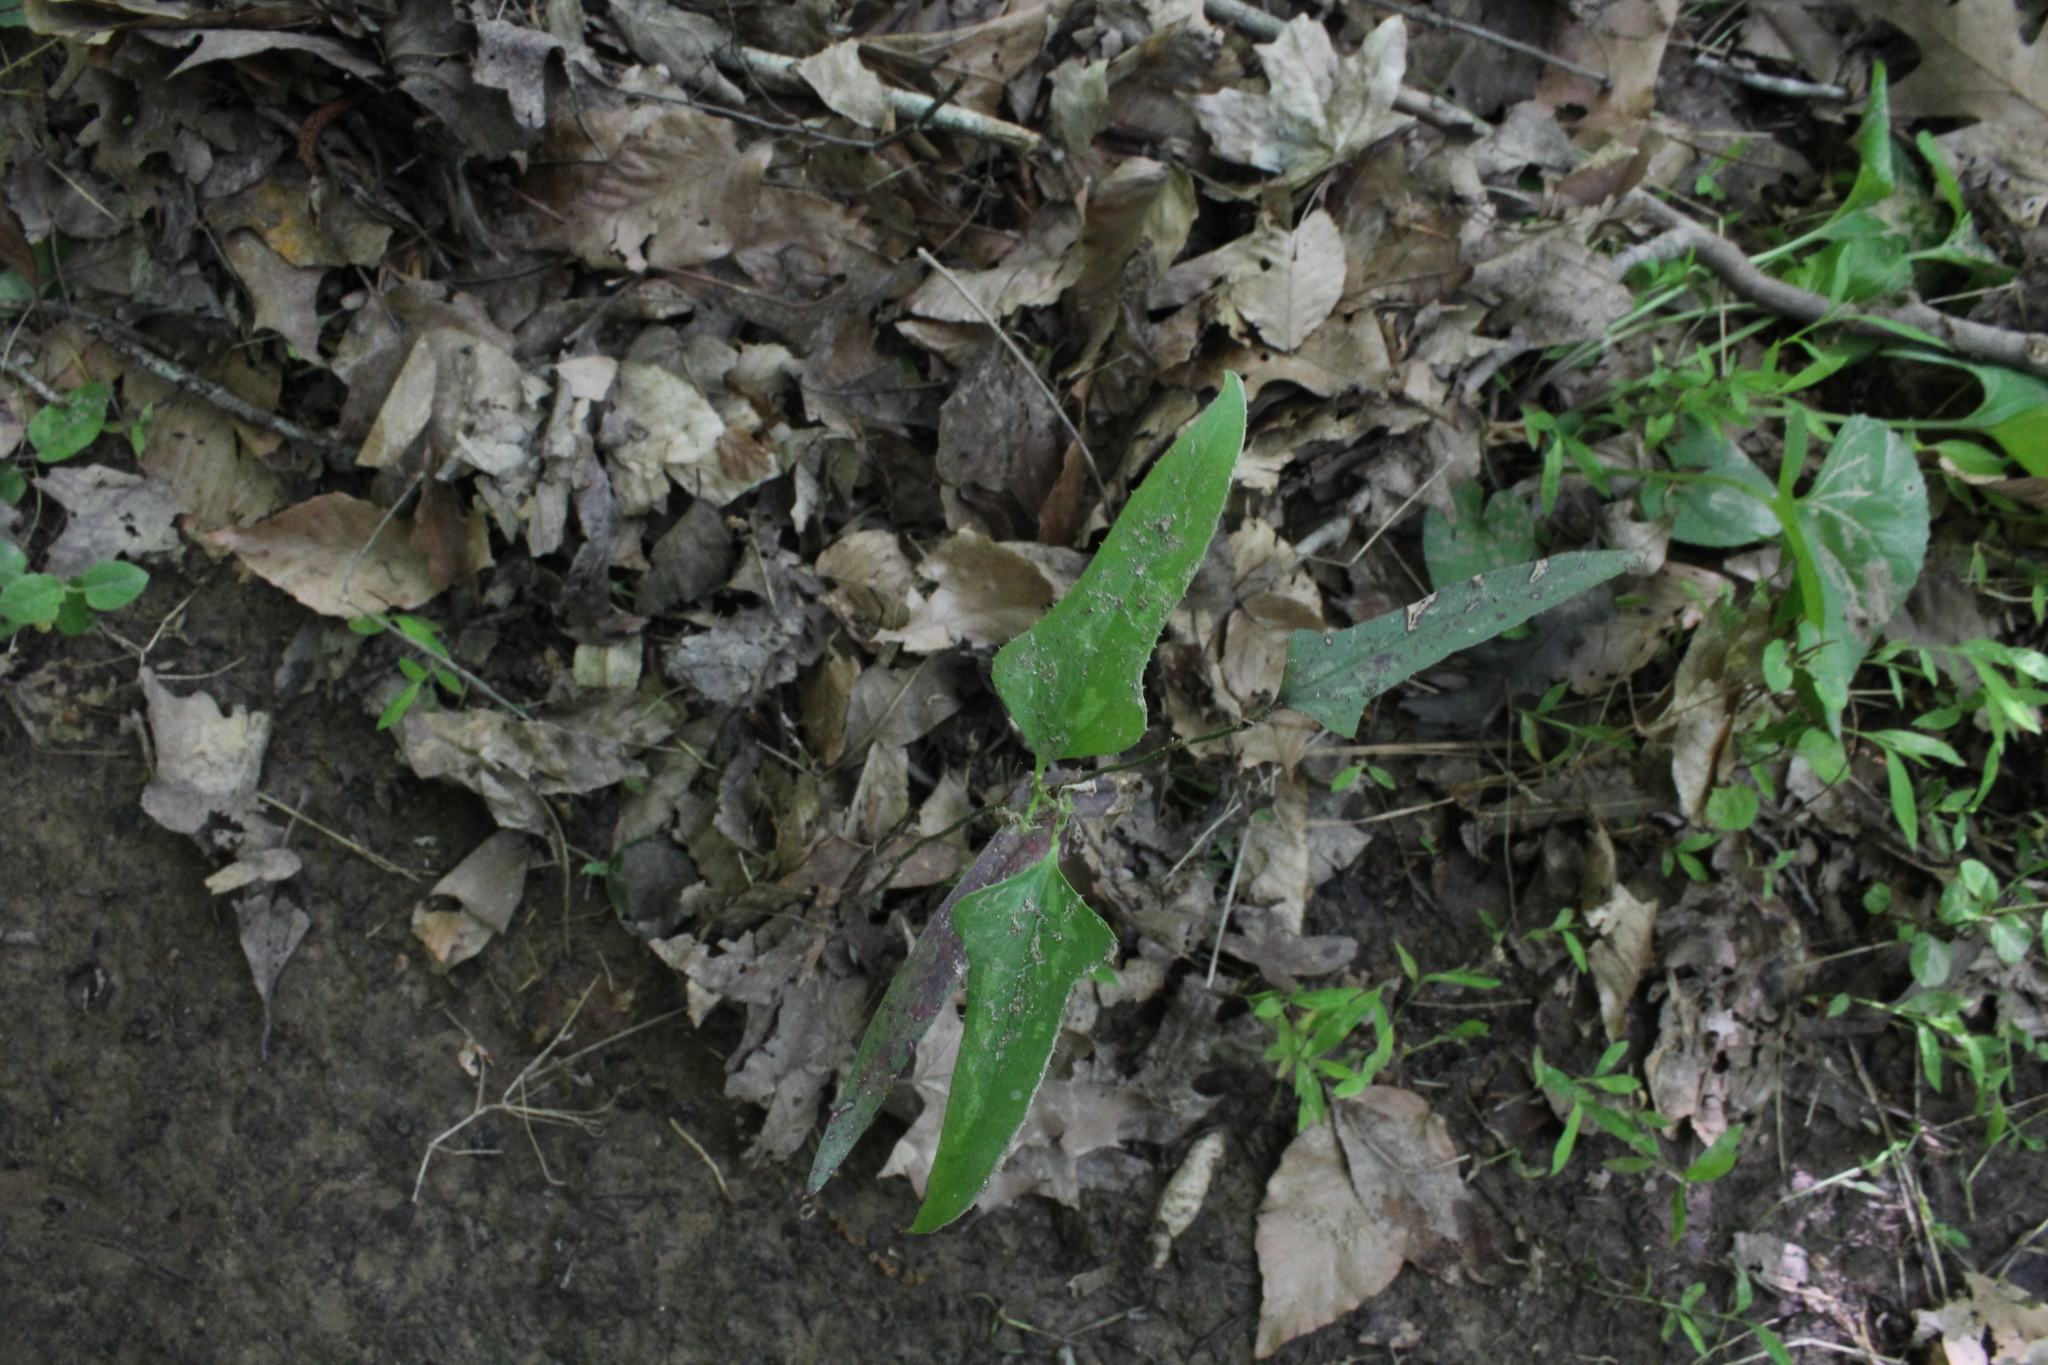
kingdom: Plantae
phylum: Tracheophyta
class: Liliopsida
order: Liliales
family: Smilacaceae
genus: Smilax
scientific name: Smilax bona-nox
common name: Catbrier
